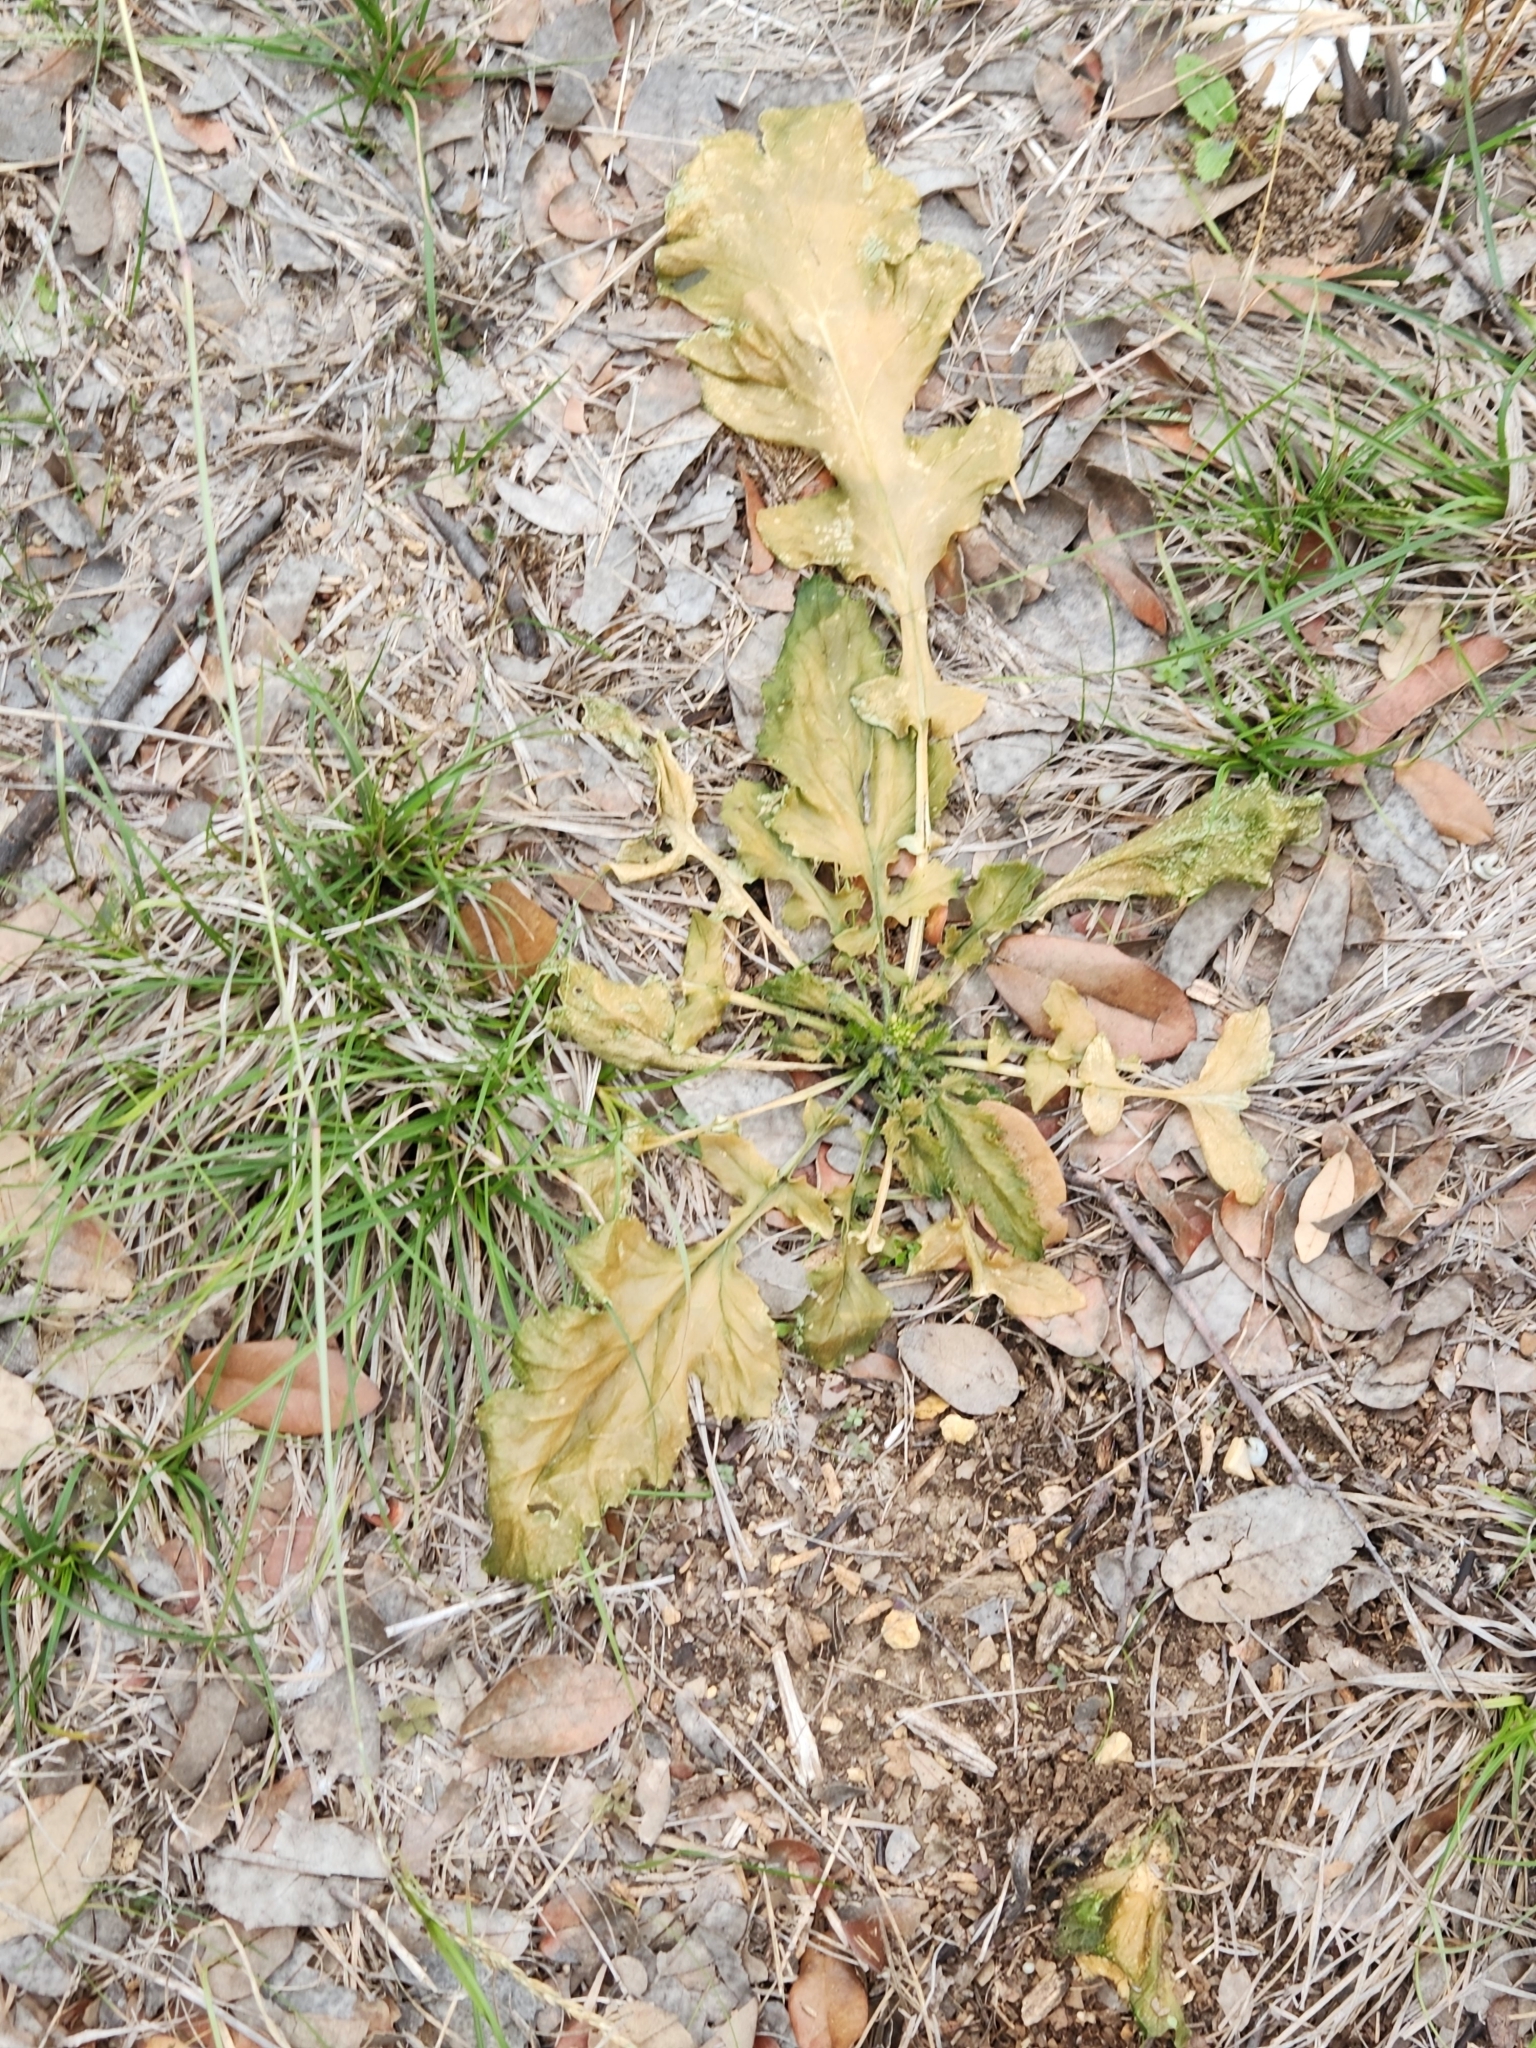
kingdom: Plantae
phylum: Tracheophyta
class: Magnoliopsida
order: Brassicales
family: Brassicaceae
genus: Rapistrum
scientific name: Rapistrum rugosum
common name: Annual bastardcabbage
